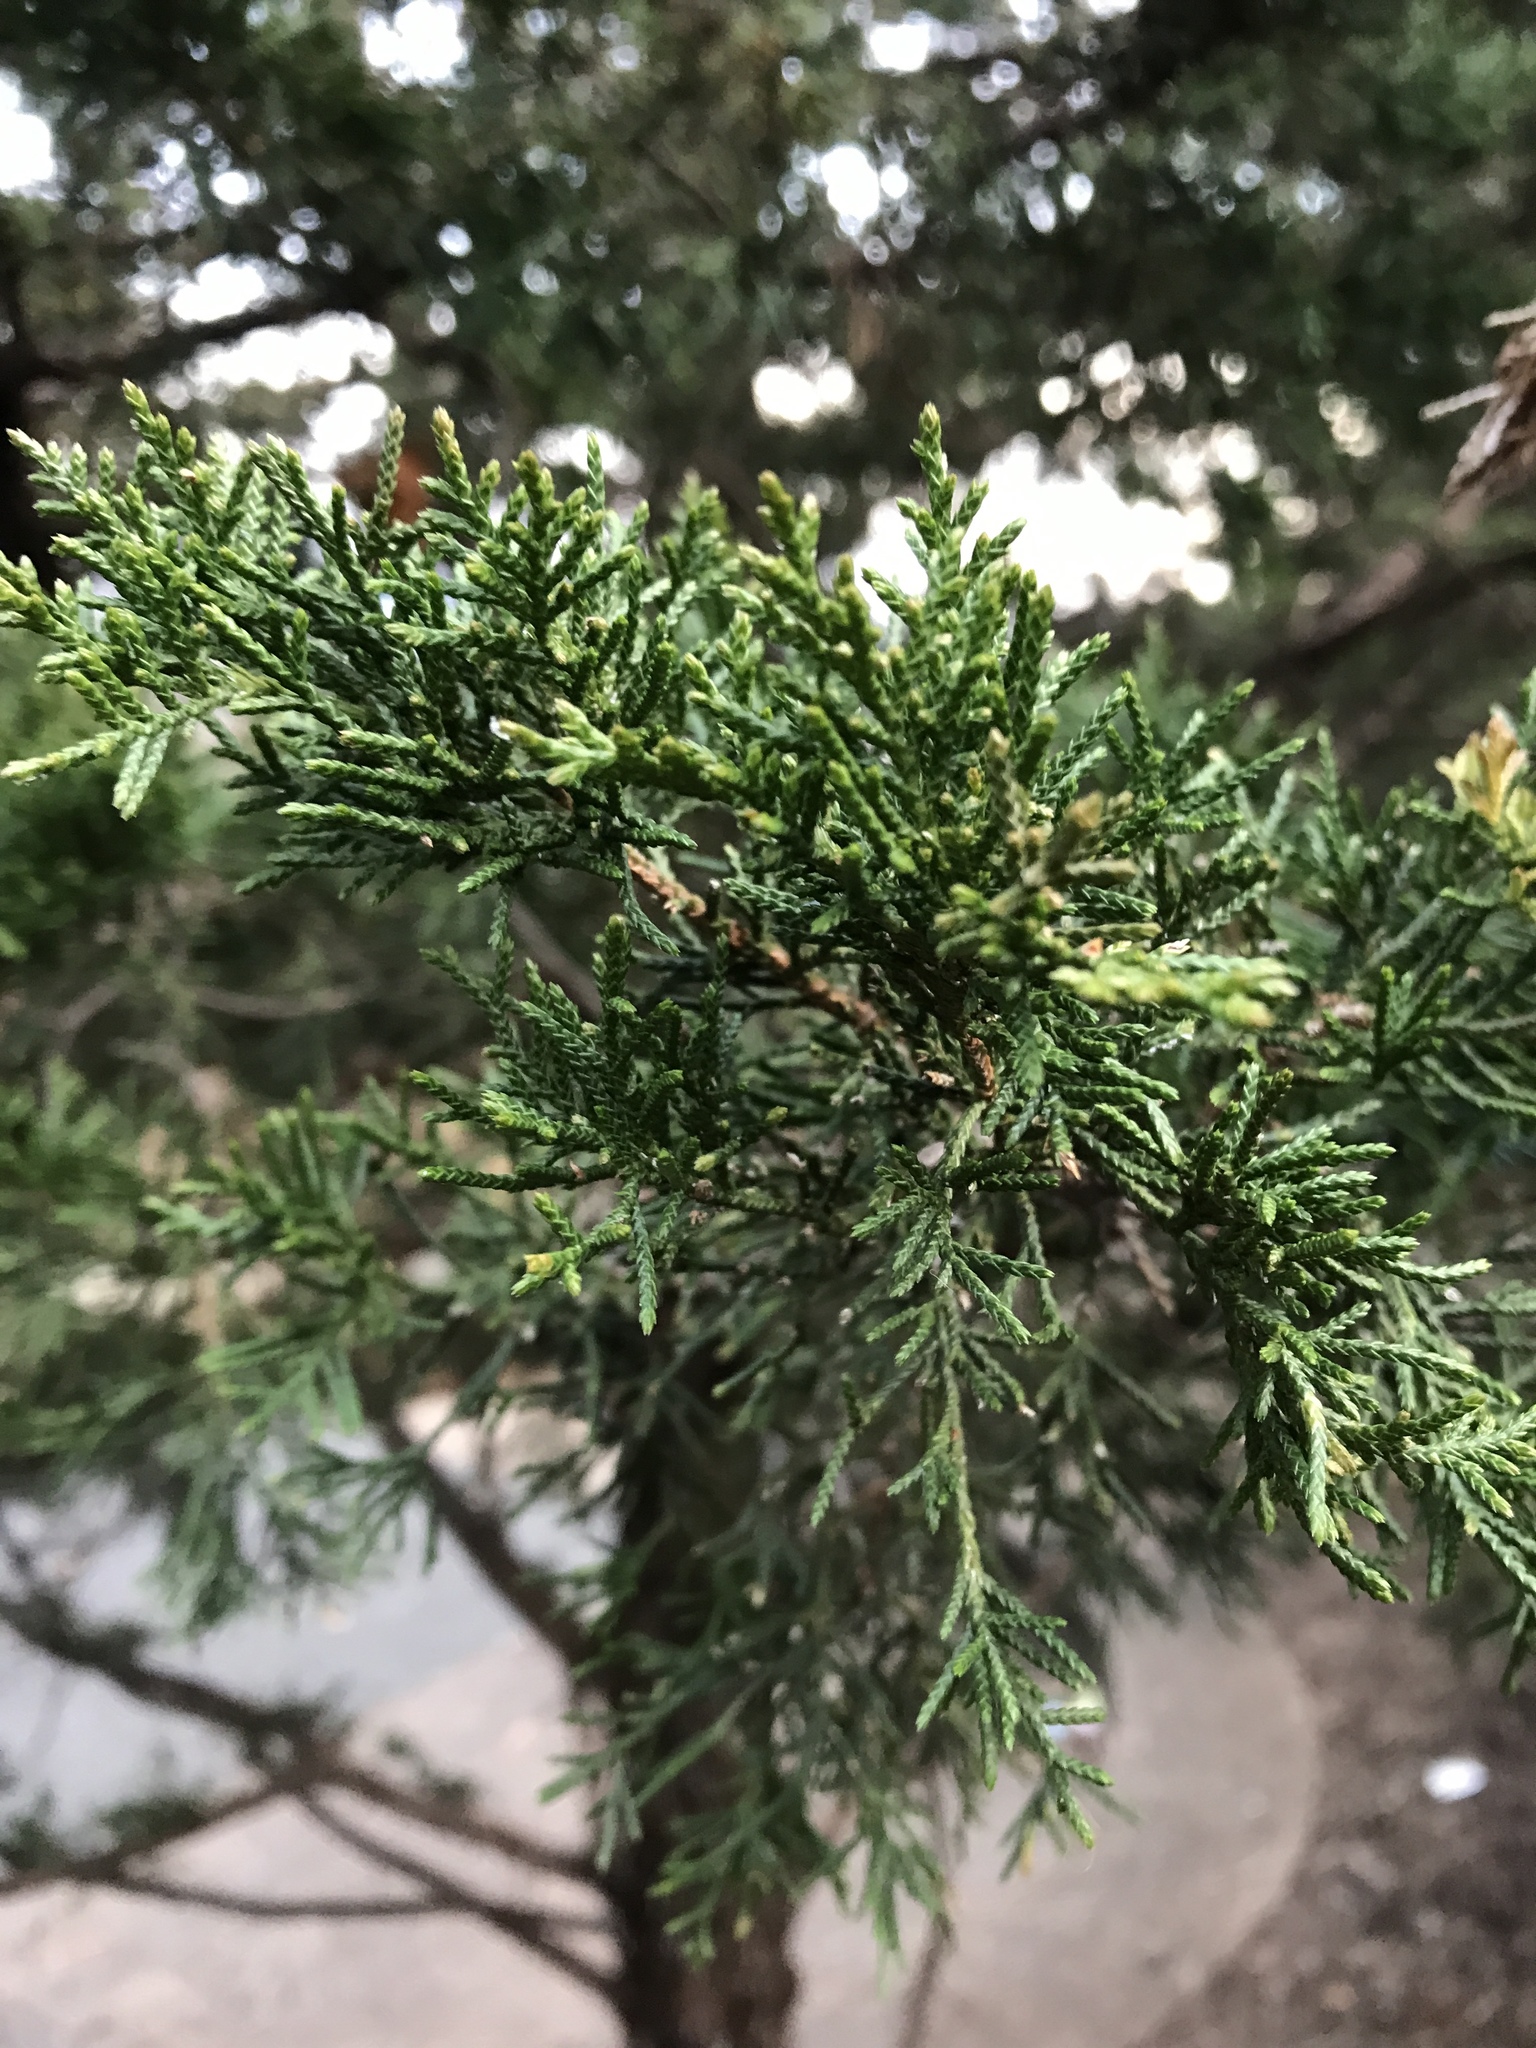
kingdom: Plantae
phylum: Tracheophyta
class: Pinopsida
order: Pinales
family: Cupressaceae
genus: Juniperus
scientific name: Juniperus virginiana
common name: Red juniper
